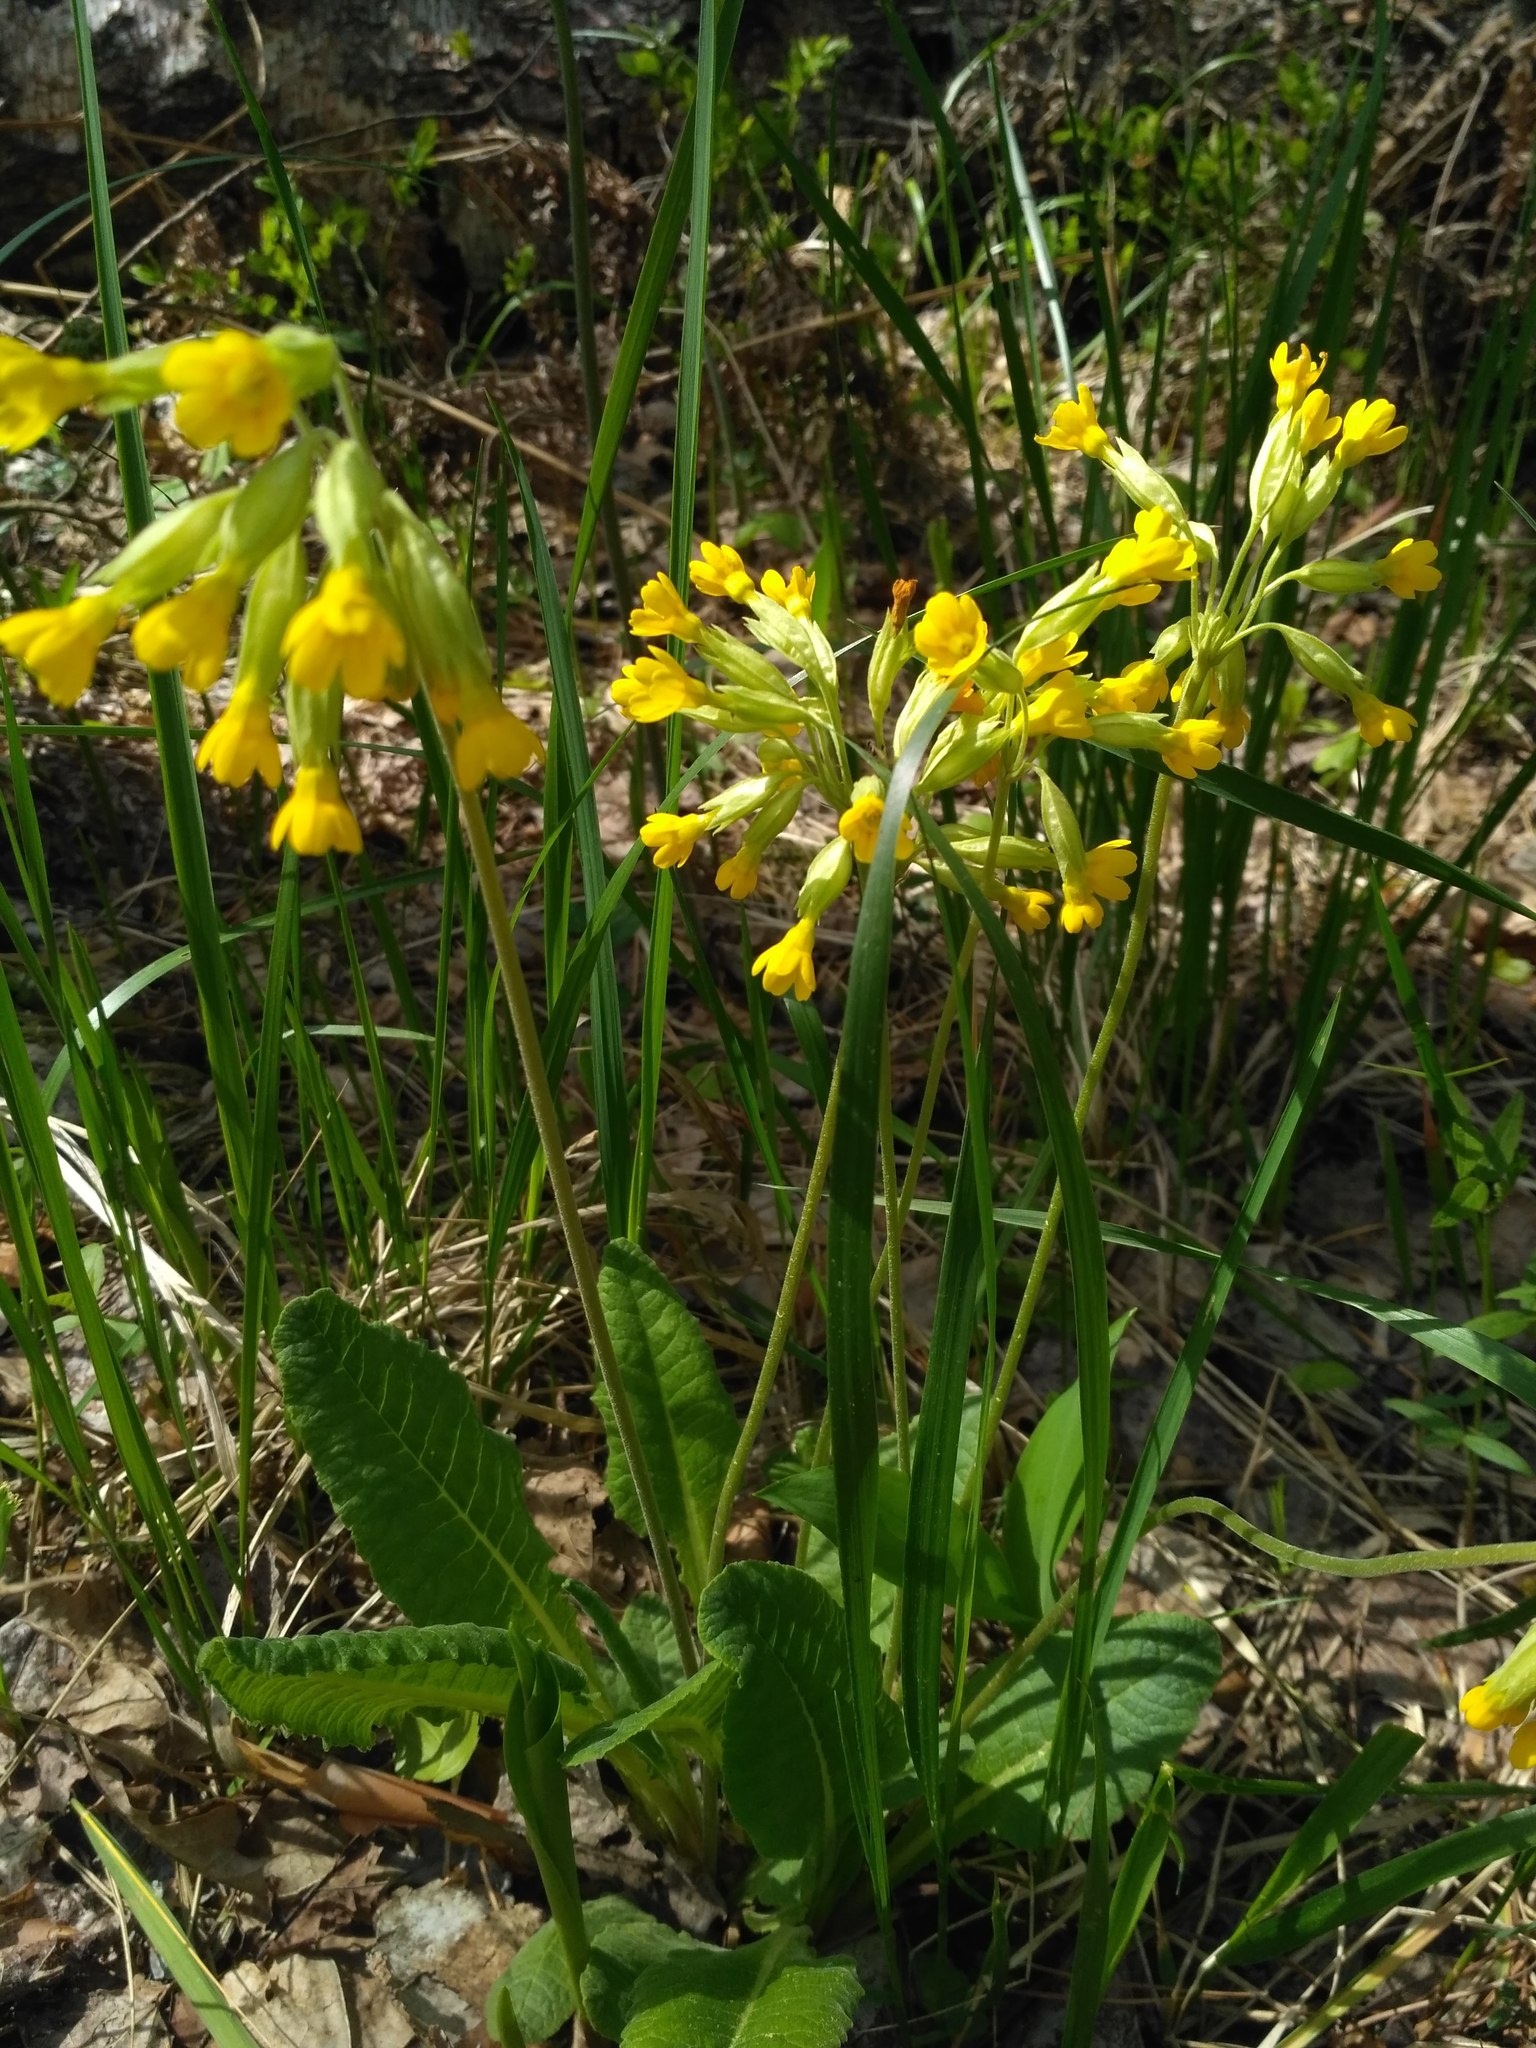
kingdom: Plantae
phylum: Tracheophyta
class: Magnoliopsida
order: Ericales
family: Primulaceae
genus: Primula
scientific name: Primula veris
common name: Cowslip
